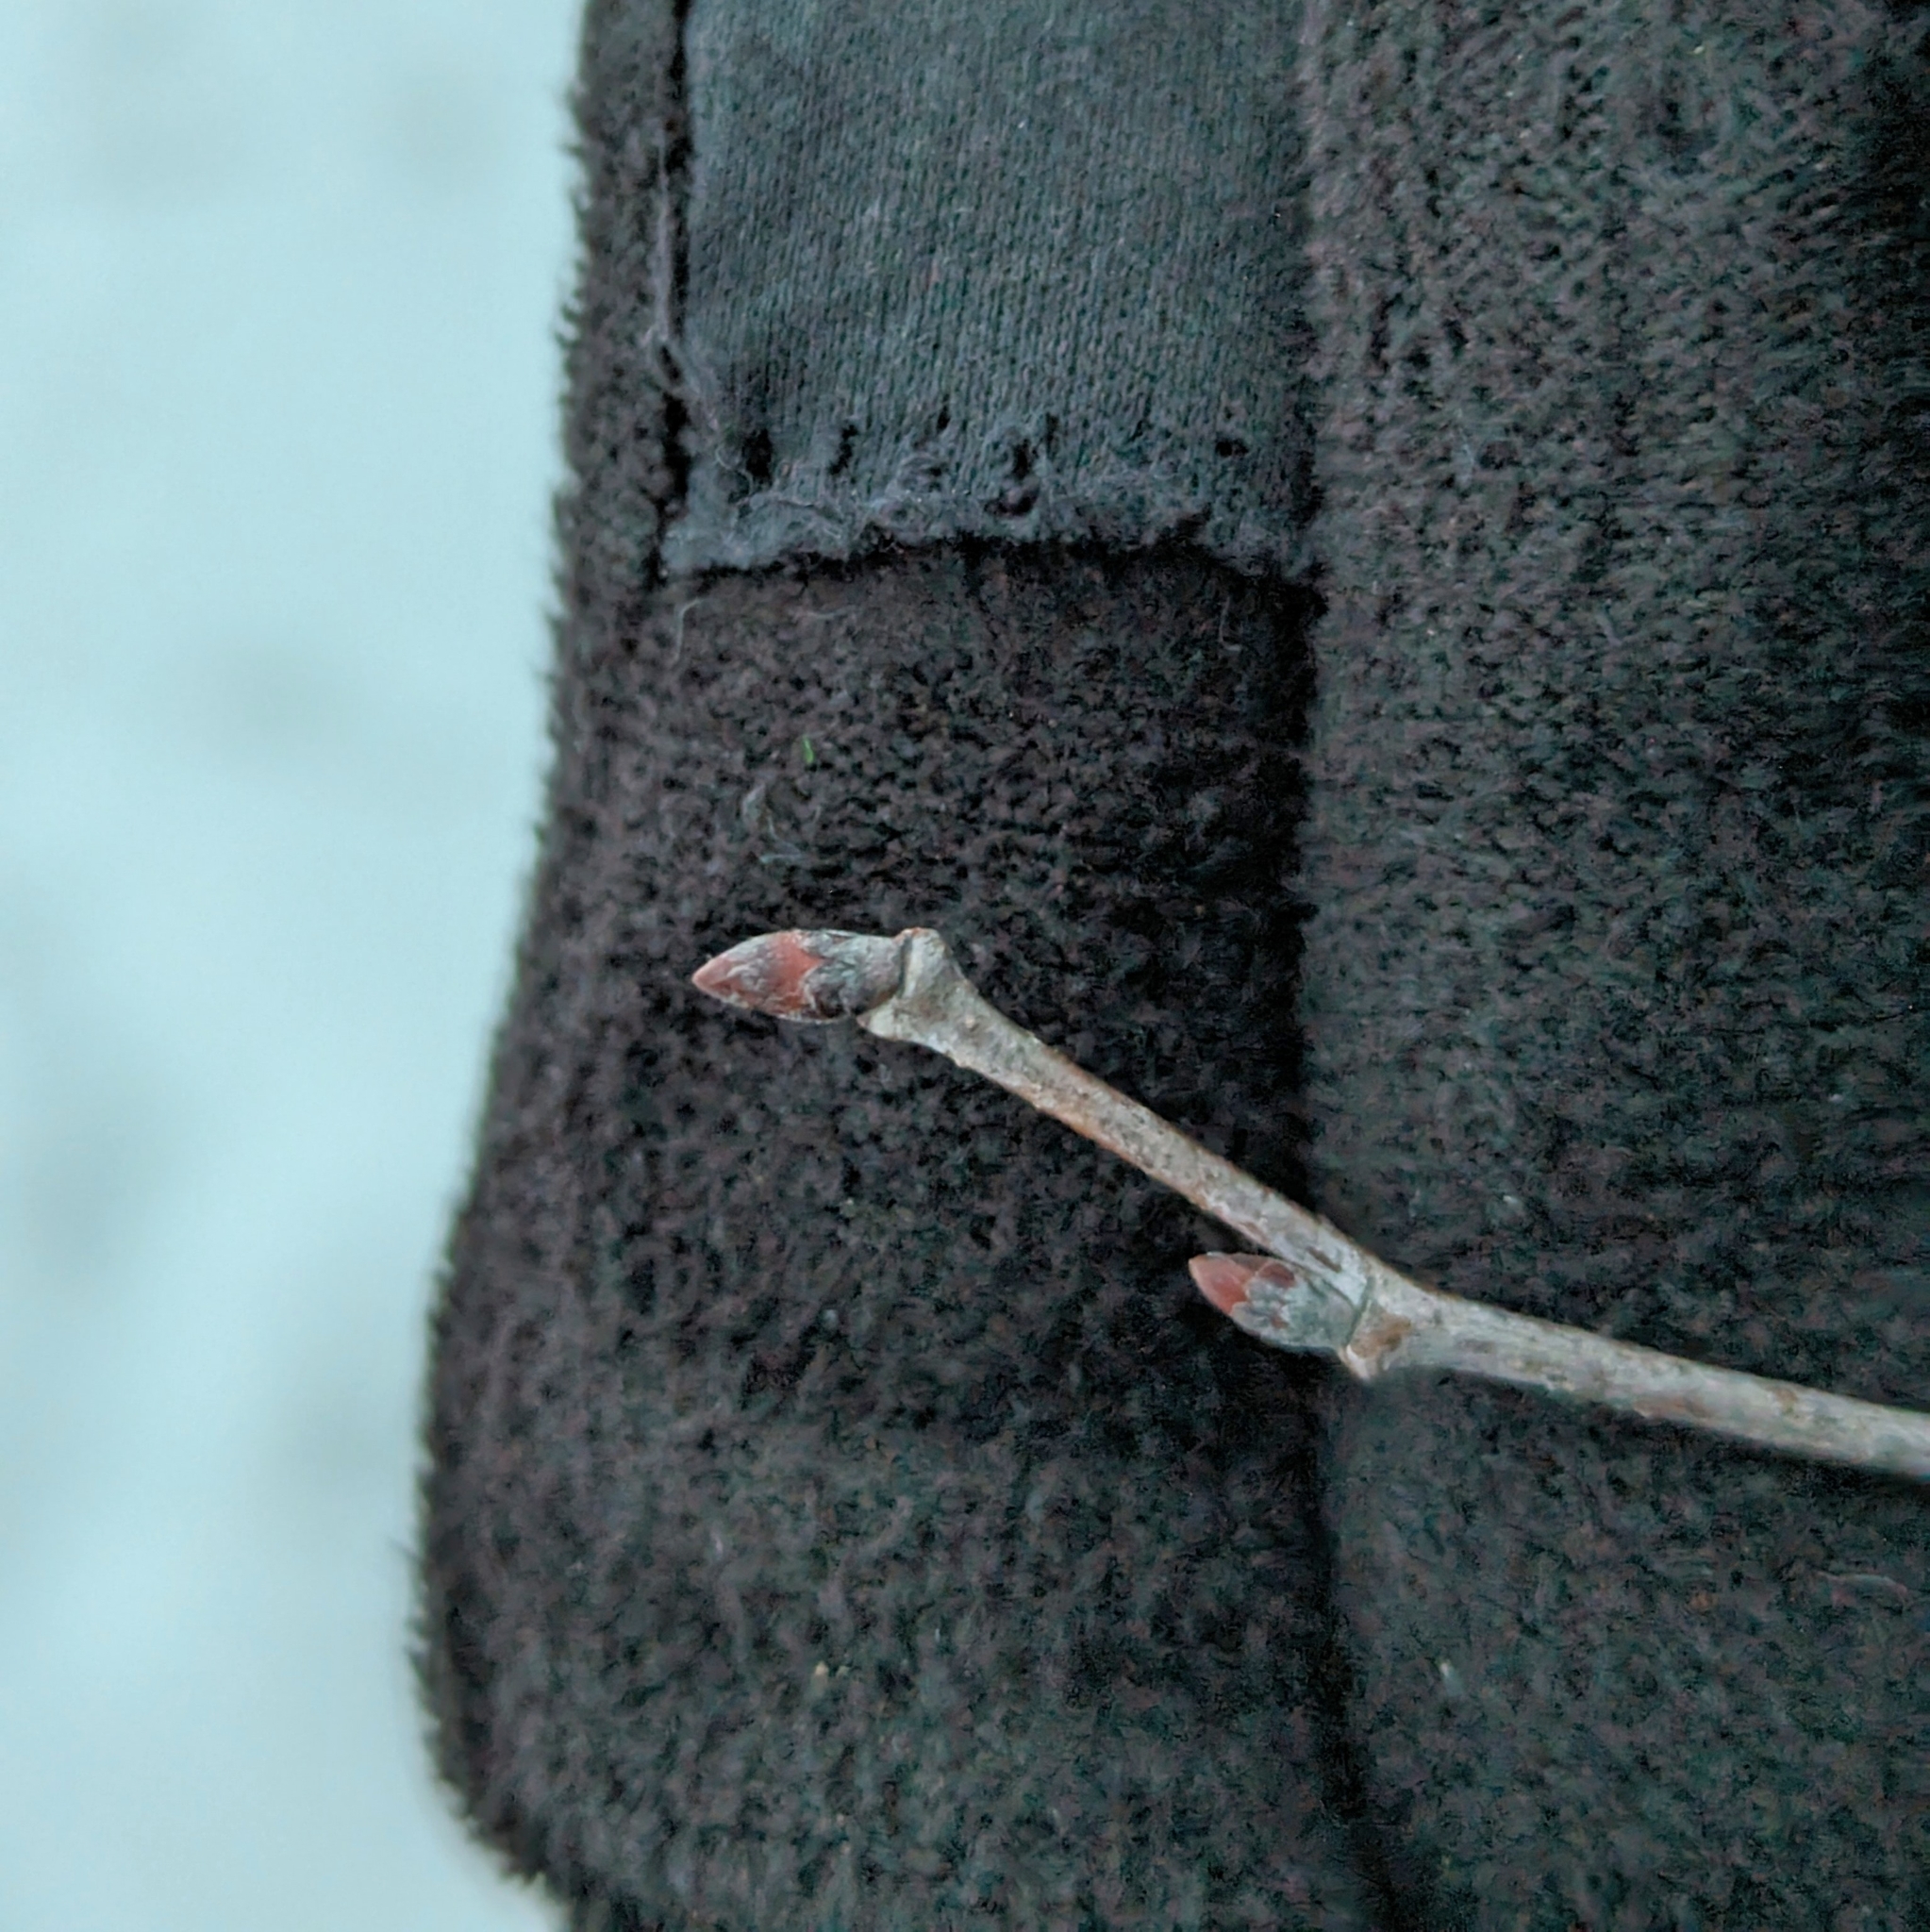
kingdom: Plantae
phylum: Tracheophyta
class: Magnoliopsida
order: Rosales
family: Ulmaceae
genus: Ulmus
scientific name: Ulmus americana
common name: American elm
